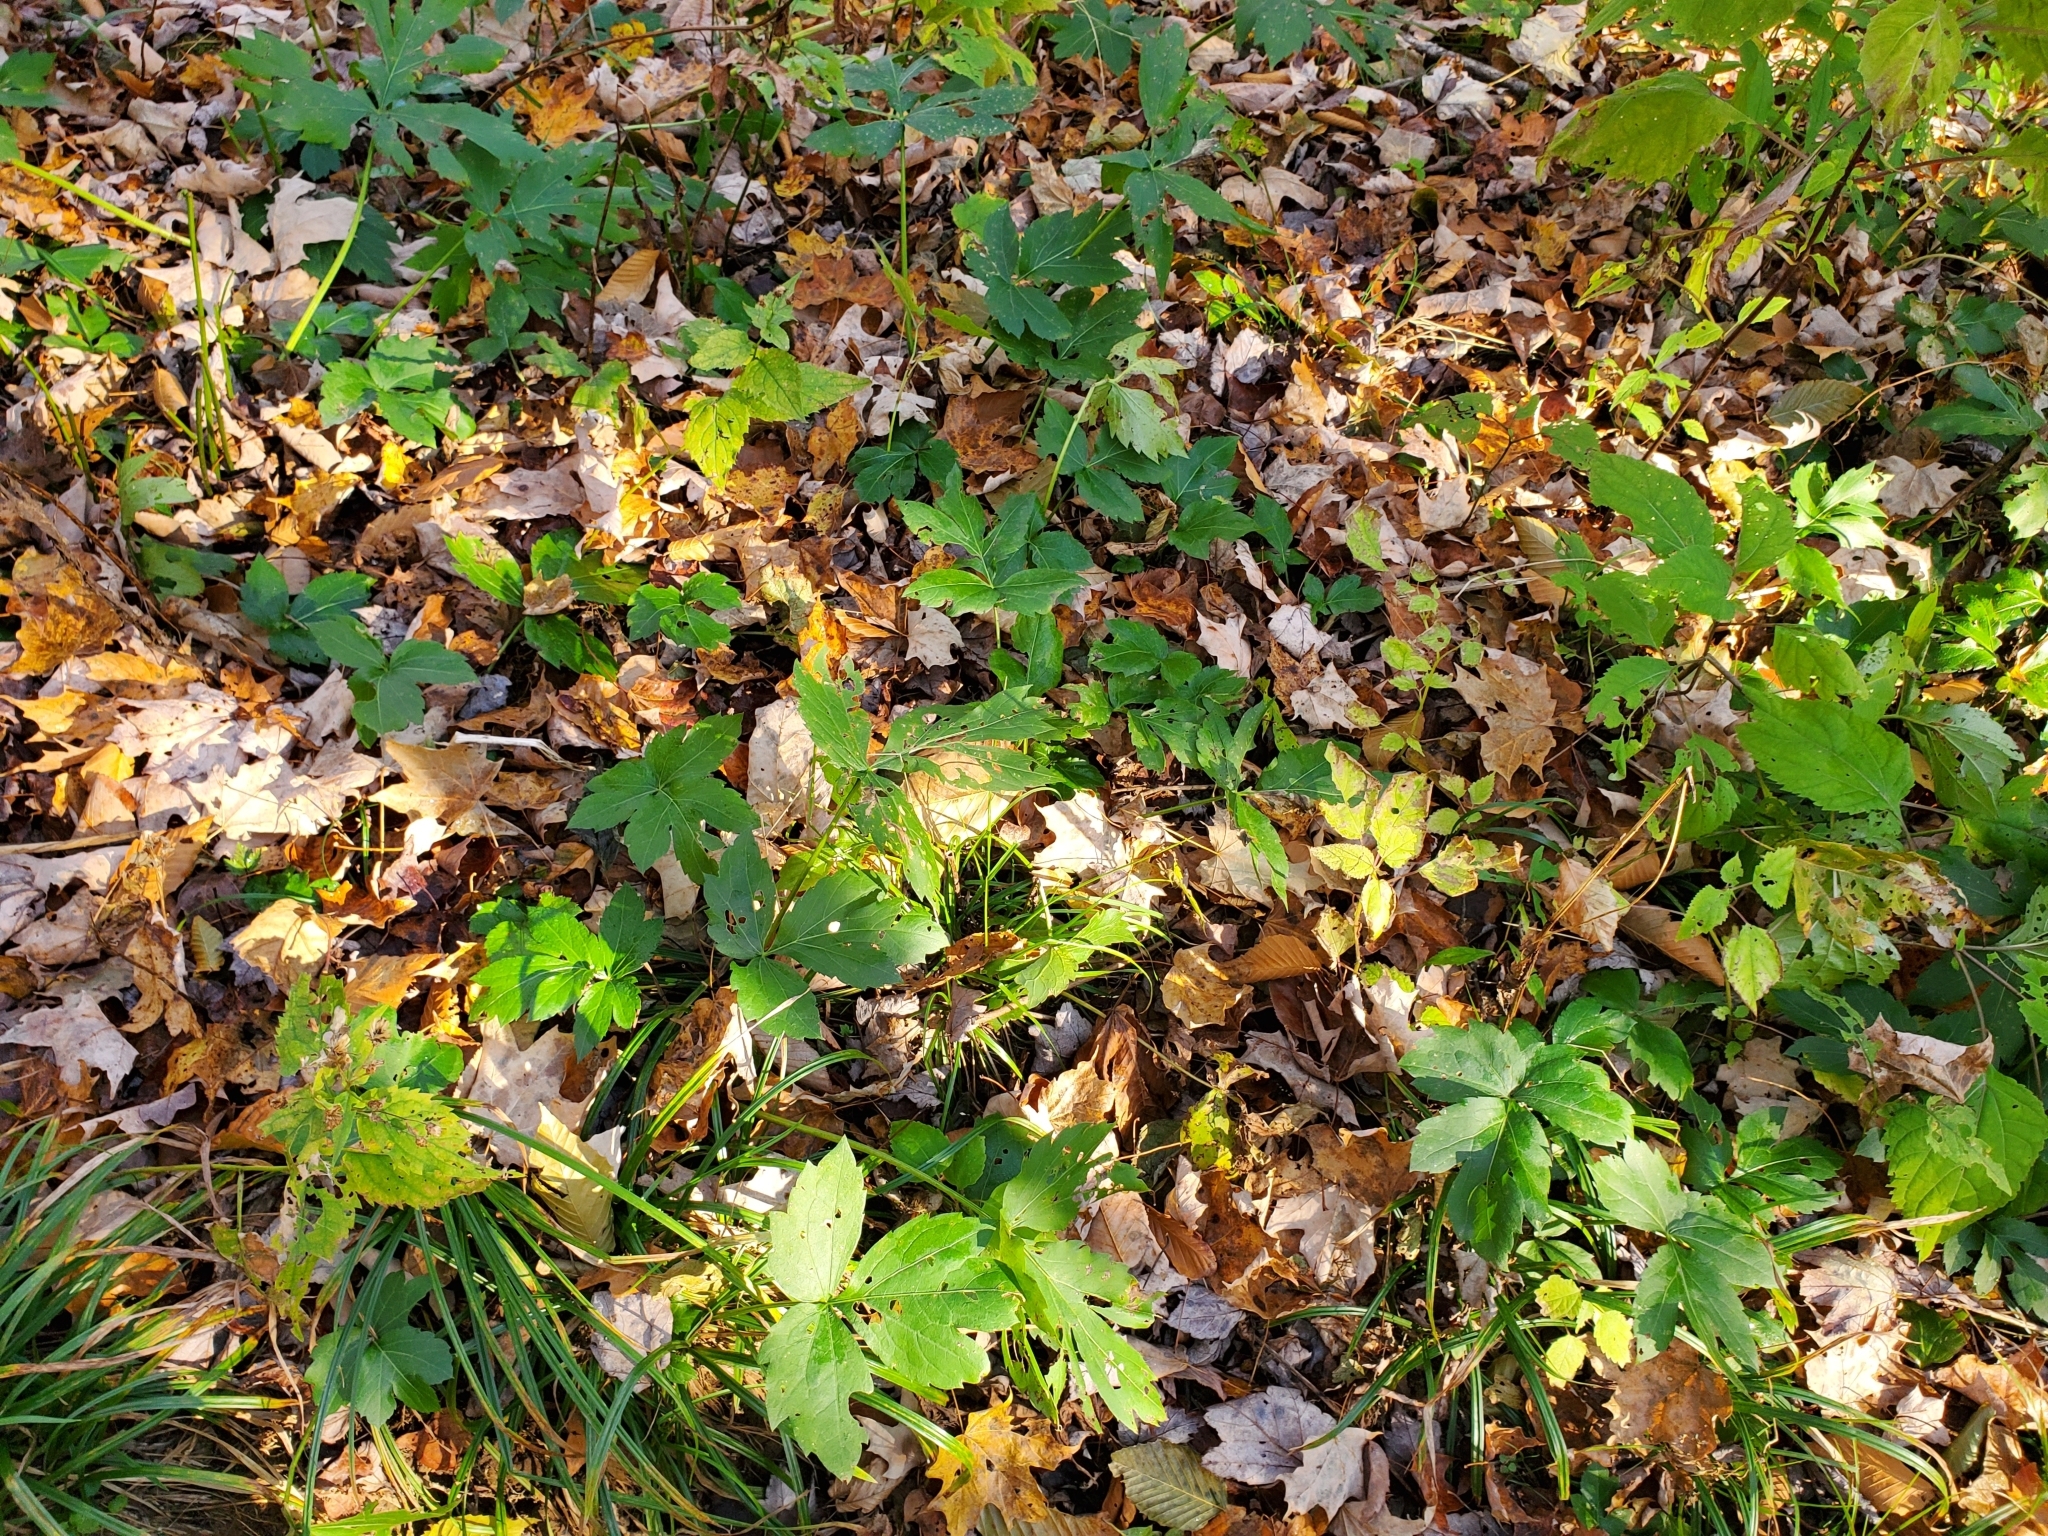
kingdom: Plantae
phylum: Tracheophyta
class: Magnoliopsida
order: Asterales
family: Asteraceae
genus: Rudbeckia
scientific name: Rudbeckia laciniata
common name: Coneflower
